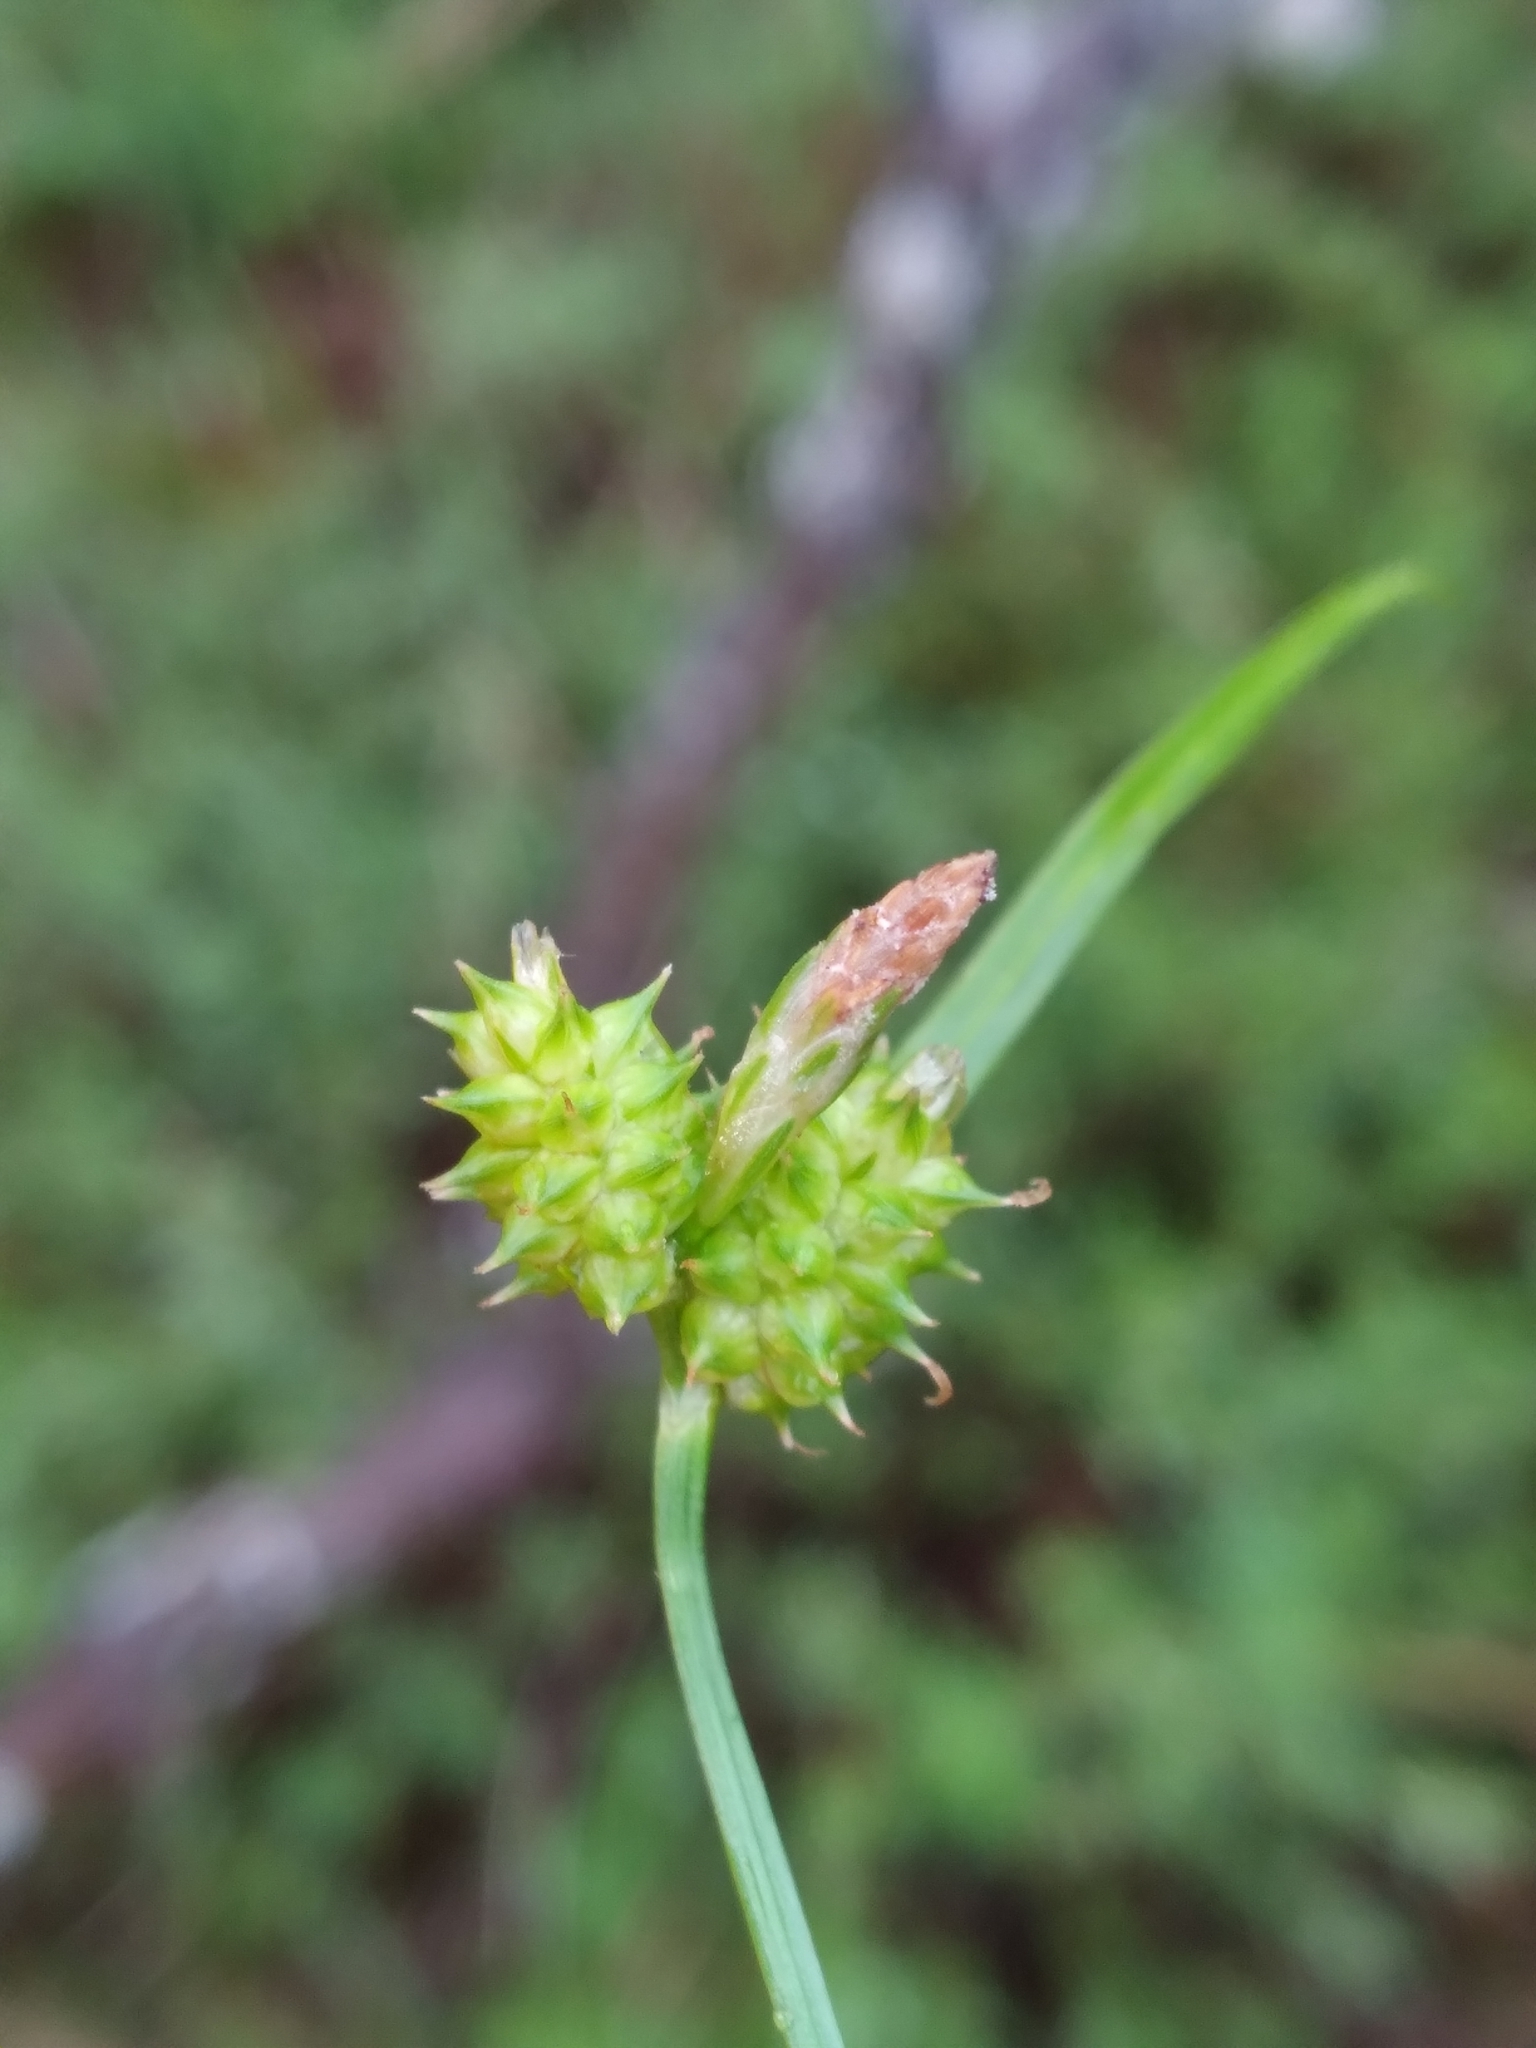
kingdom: Plantae
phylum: Tracheophyta
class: Liliopsida
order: Poales
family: Cyperaceae
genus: Carex
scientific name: Carex
